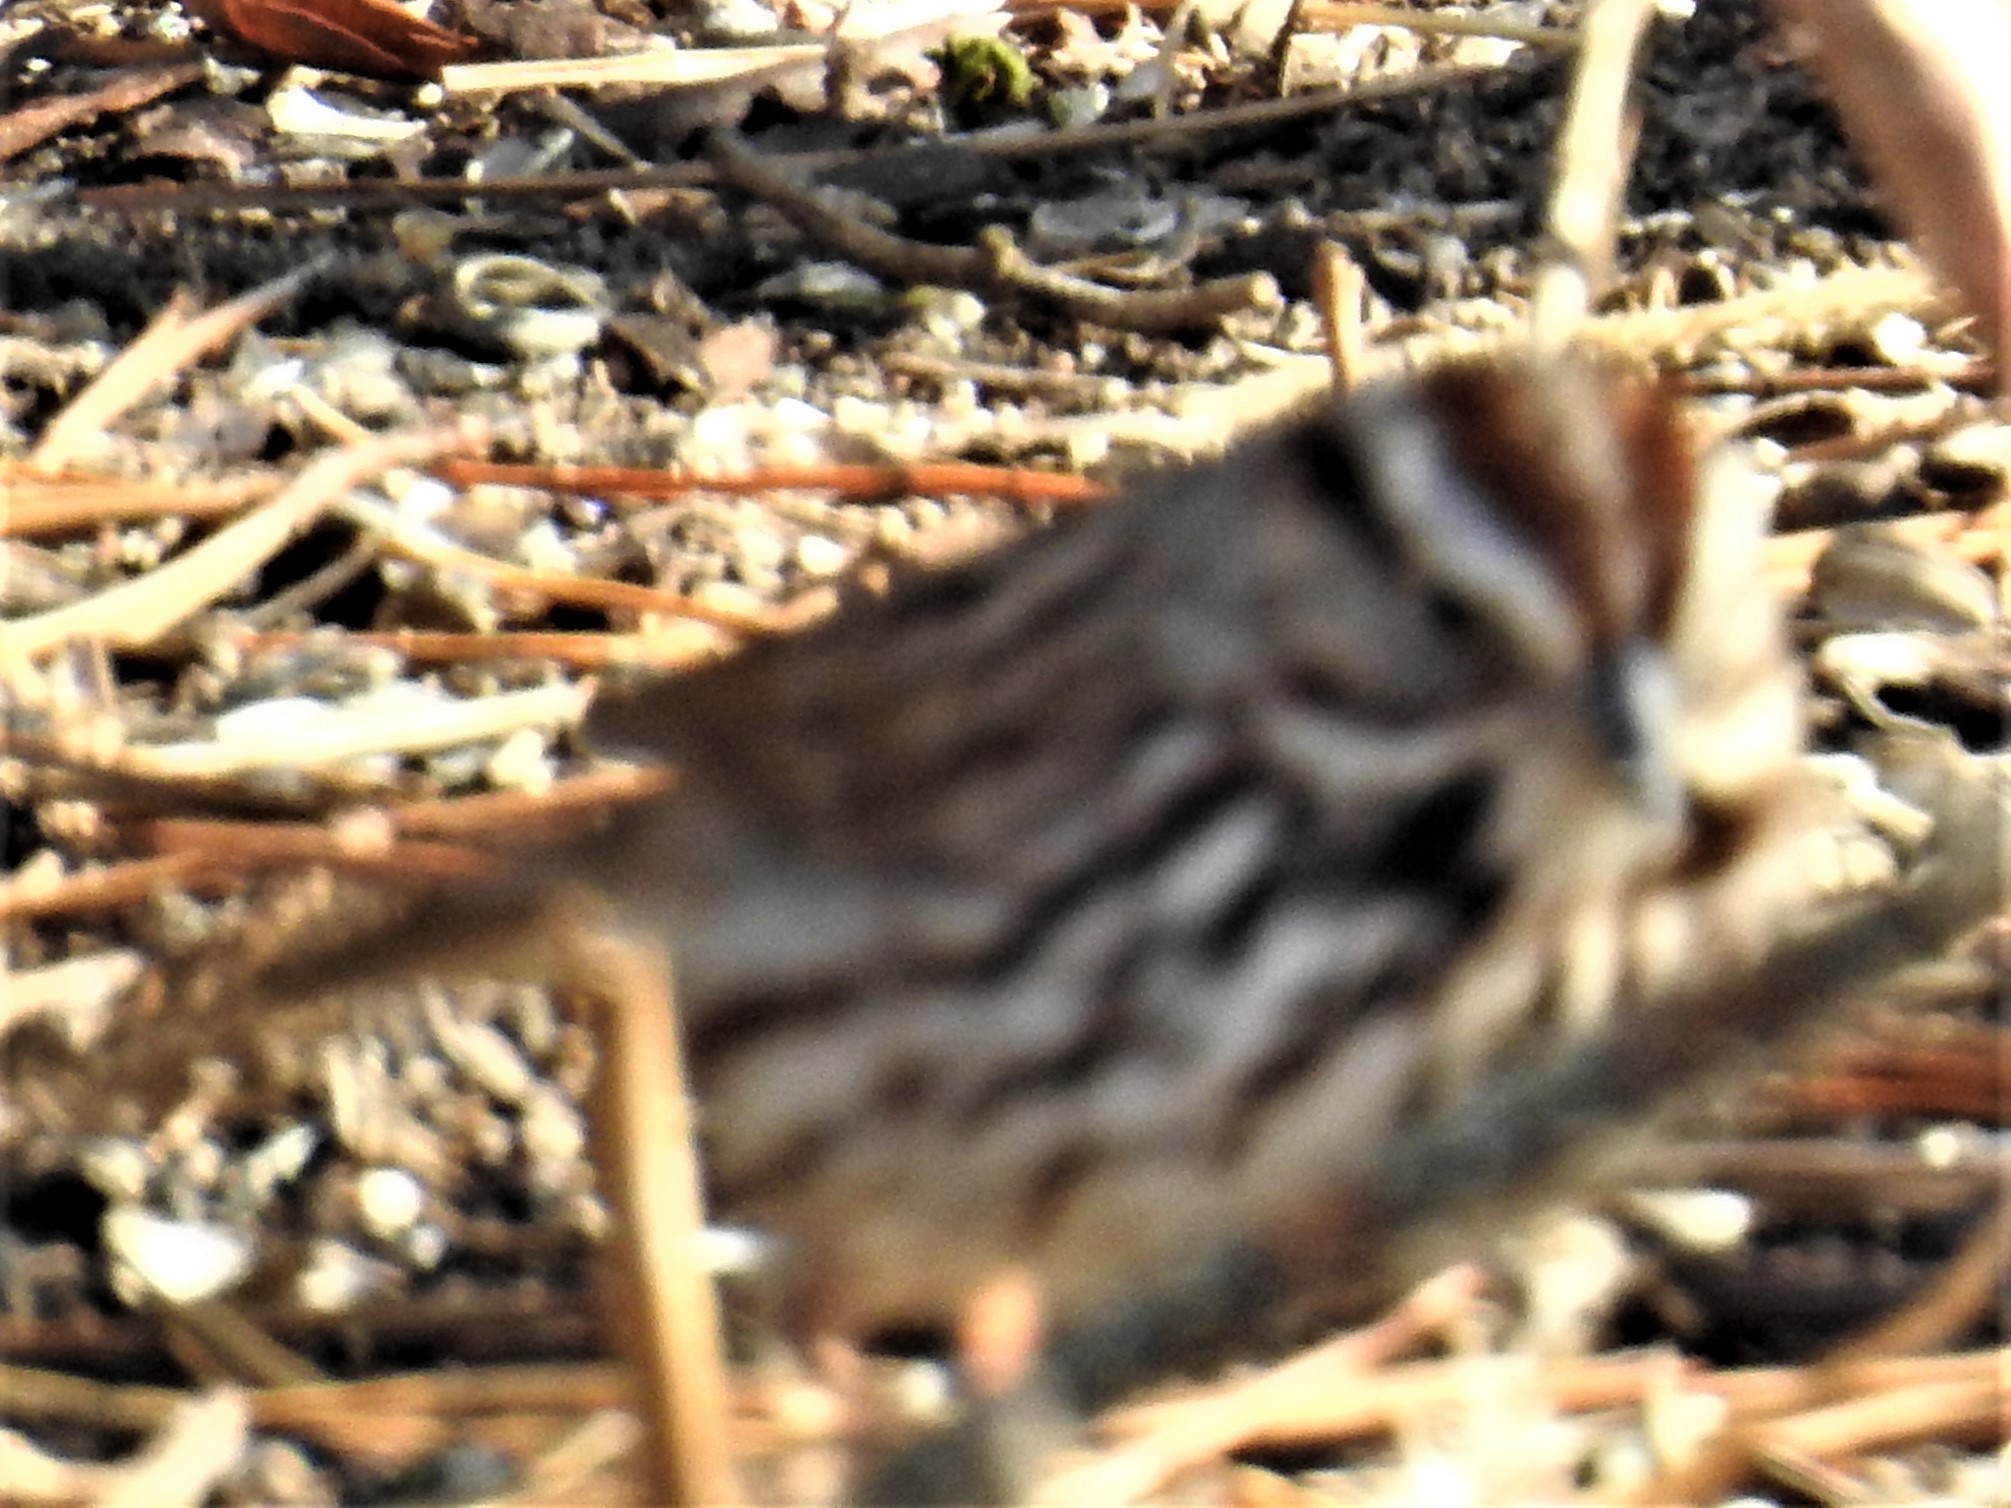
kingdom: Animalia
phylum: Chordata
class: Aves
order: Passeriformes
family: Passerellidae
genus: Melospiza
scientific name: Melospiza melodia
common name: Song sparrow
